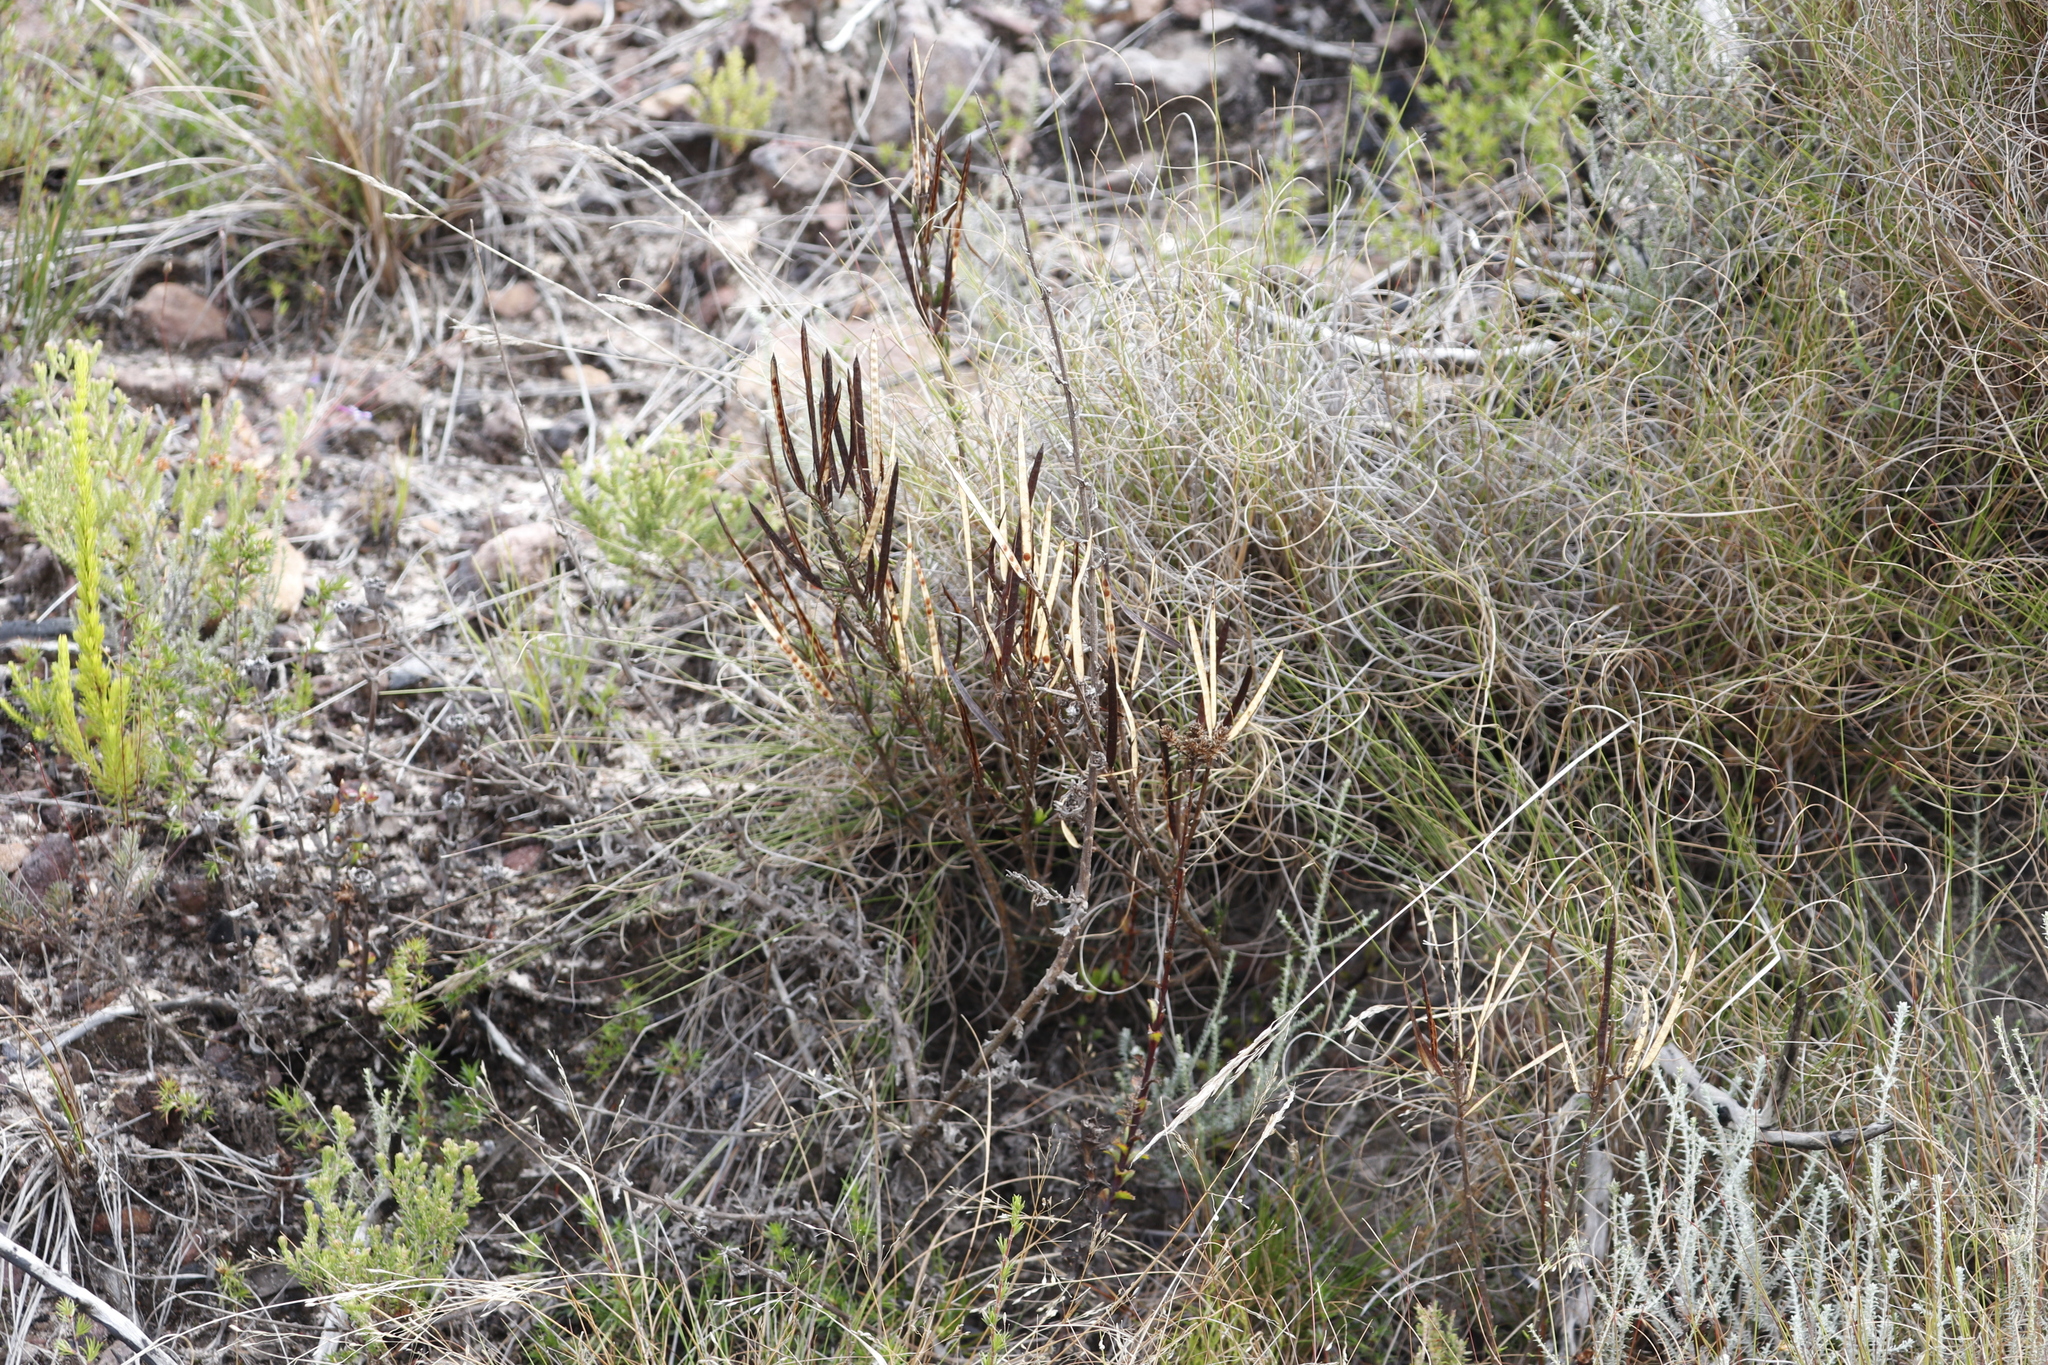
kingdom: Plantae
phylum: Tracheophyta
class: Magnoliopsida
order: Brassicales
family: Brassicaceae
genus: Heliophila
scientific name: Heliophila scoparia
